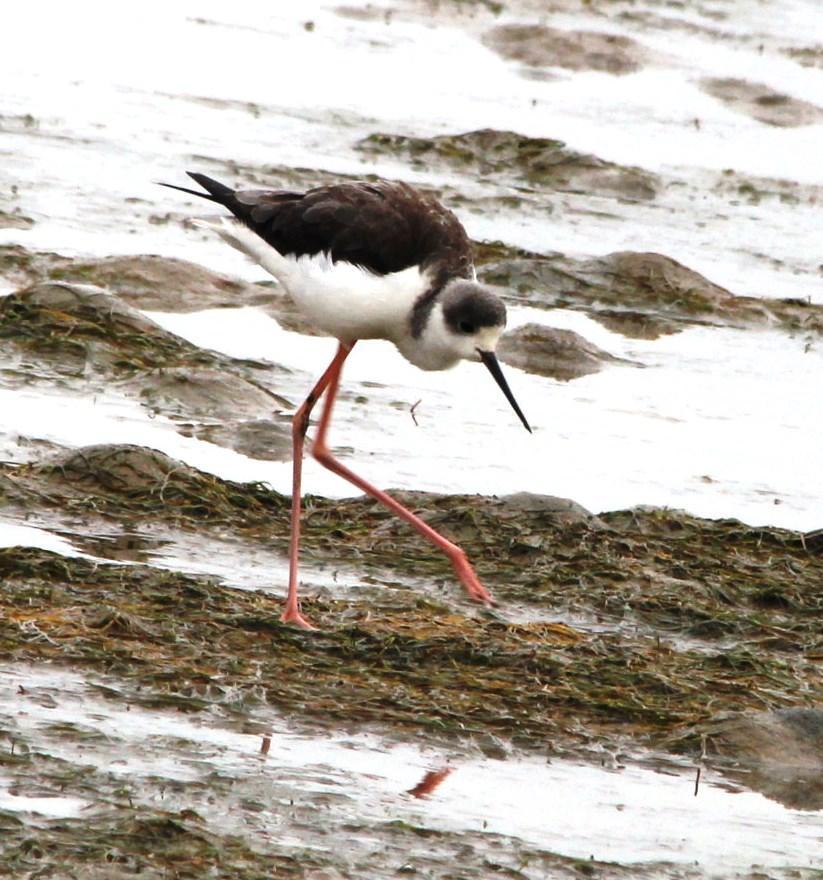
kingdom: Animalia
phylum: Chordata
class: Aves
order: Charadriiformes
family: Recurvirostridae
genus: Himantopus
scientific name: Himantopus himantopus
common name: Black-winged stilt
